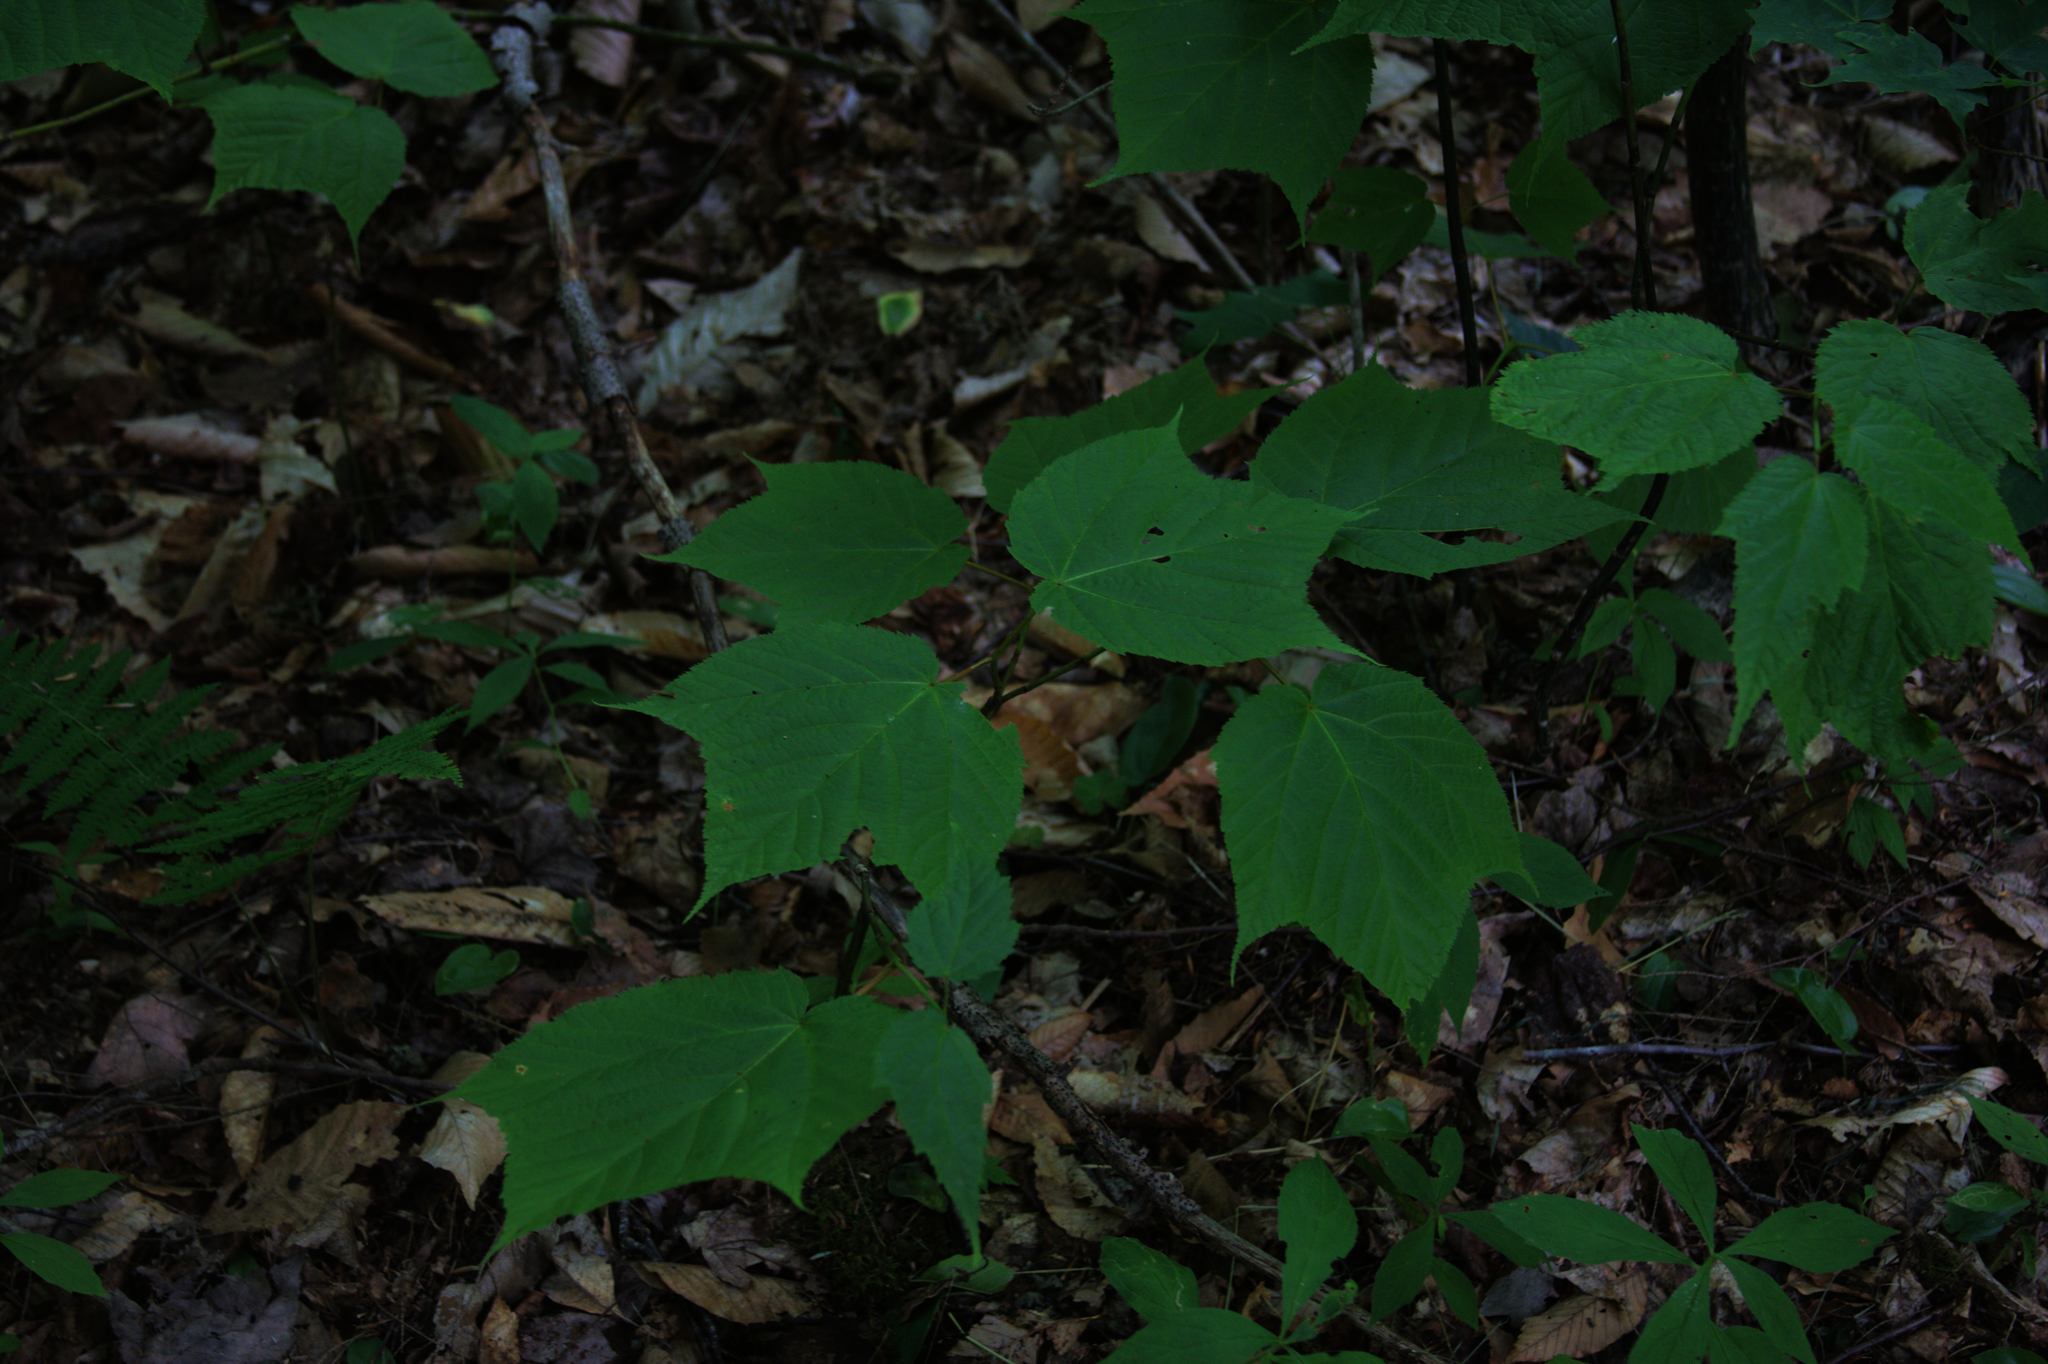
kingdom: Plantae
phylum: Tracheophyta
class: Magnoliopsida
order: Sapindales
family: Sapindaceae
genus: Acer
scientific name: Acer pensylvanicum
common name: Moosewood
